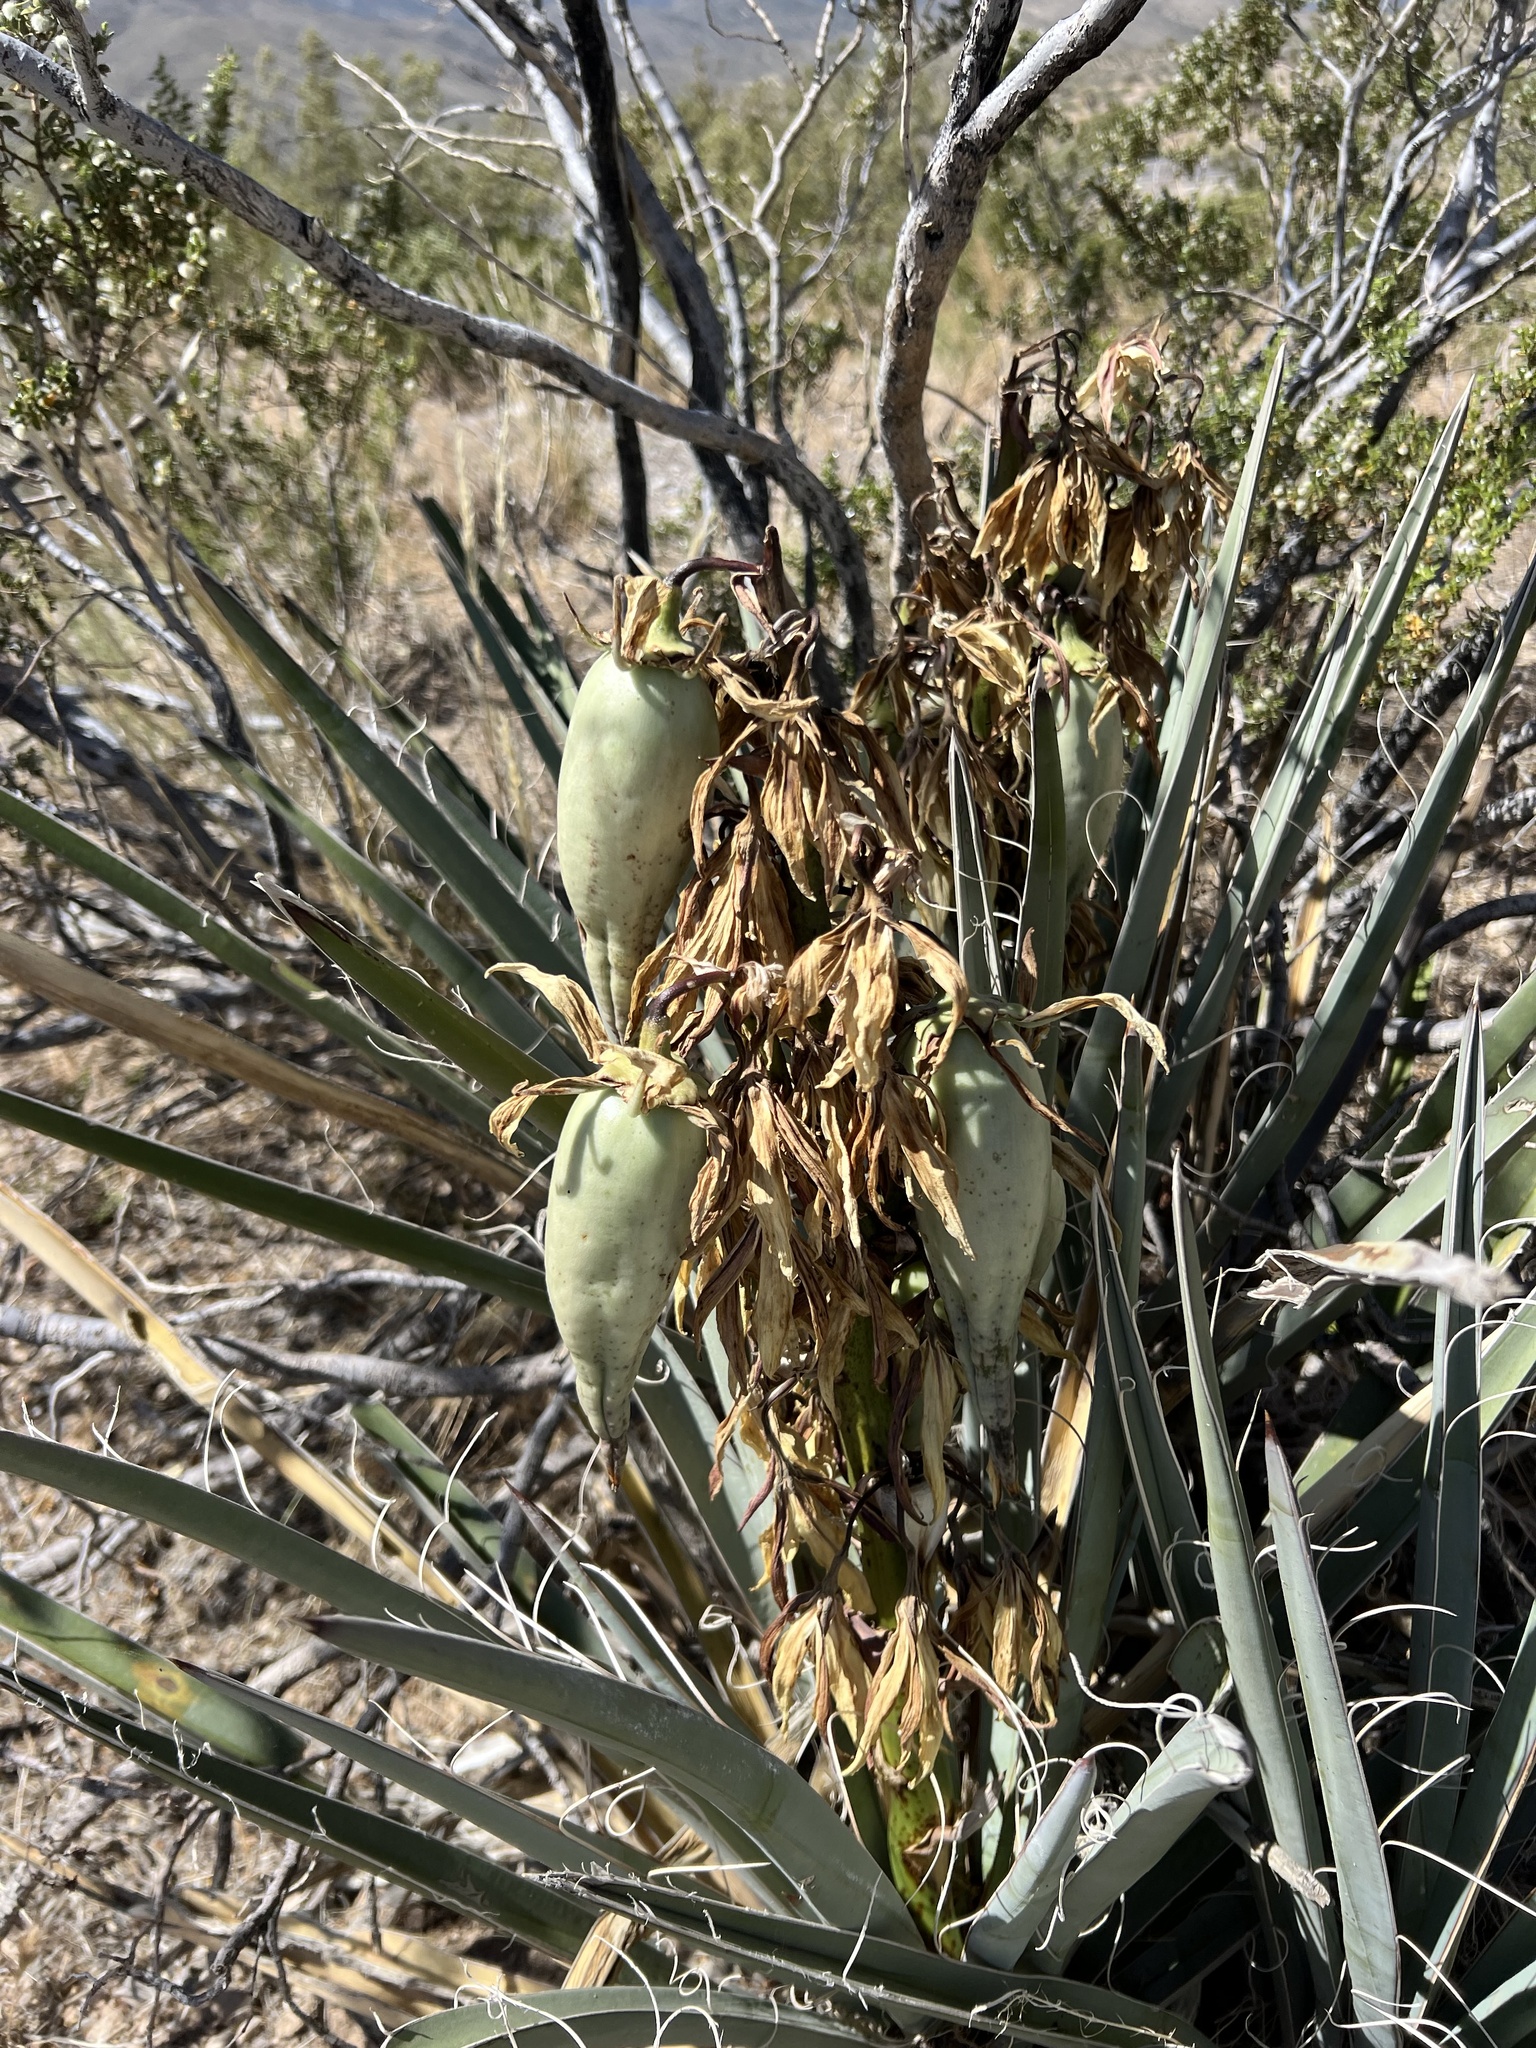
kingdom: Plantae
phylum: Tracheophyta
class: Liliopsida
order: Asparagales
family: Asparagaceae
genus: Yucca
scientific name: Yucca baccata
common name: Banana yucca
